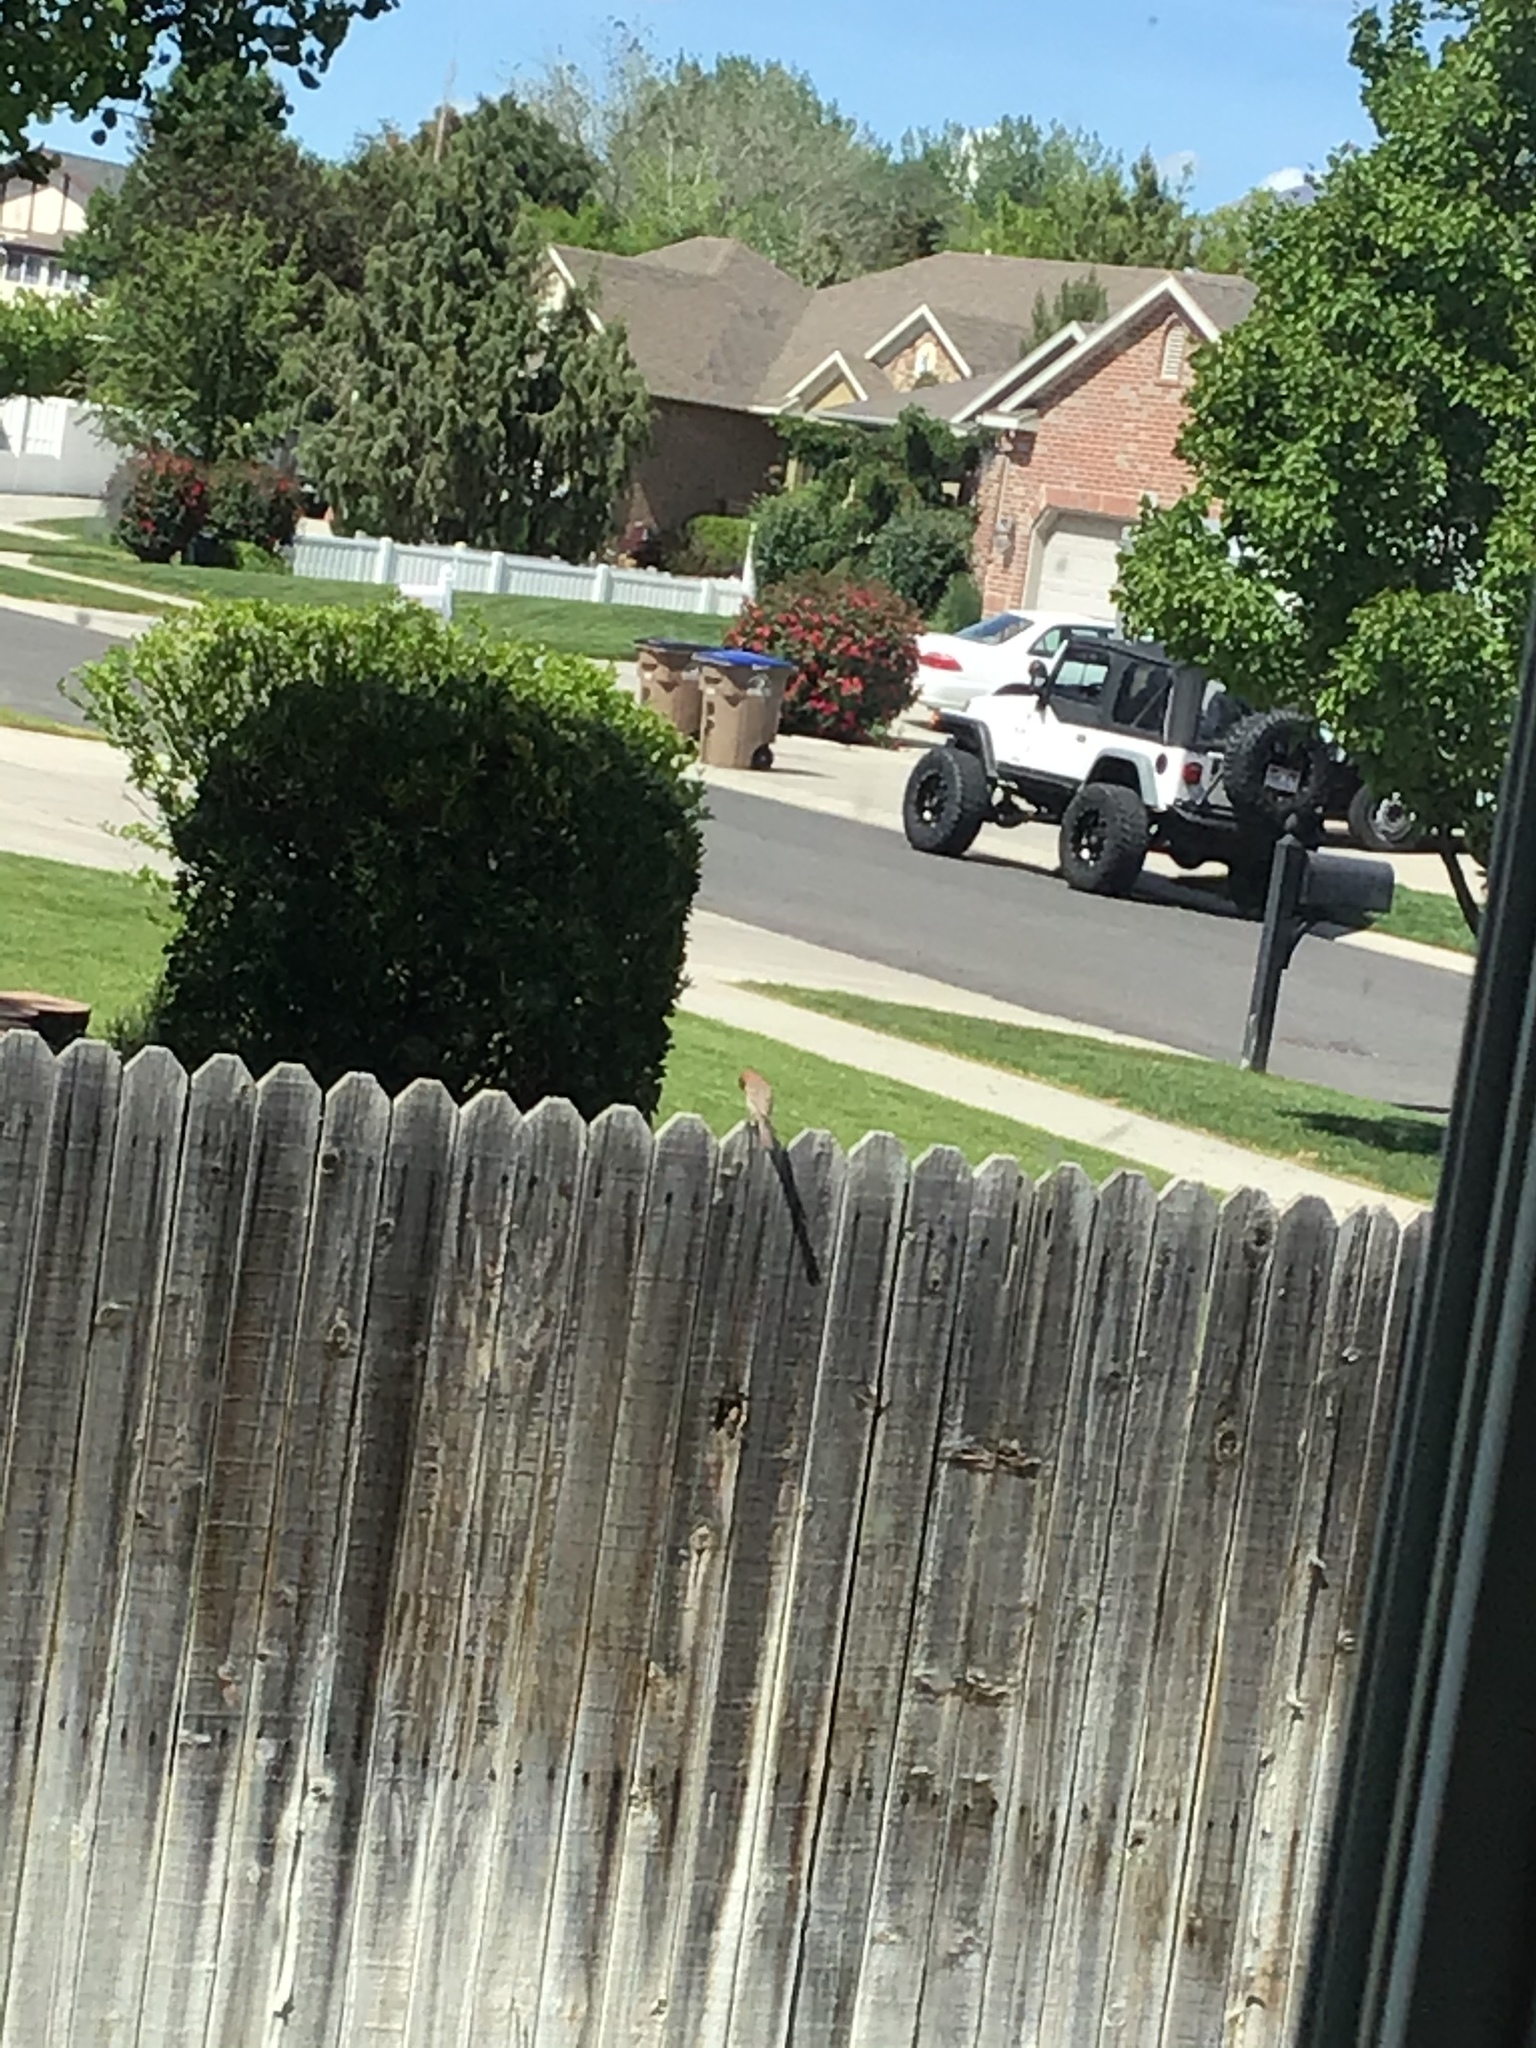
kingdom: Animalia
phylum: Chordata
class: Aves
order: Passeriformes
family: Fringillidae
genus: Haemorhous
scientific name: Haemorhous mexicanus
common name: House finch
